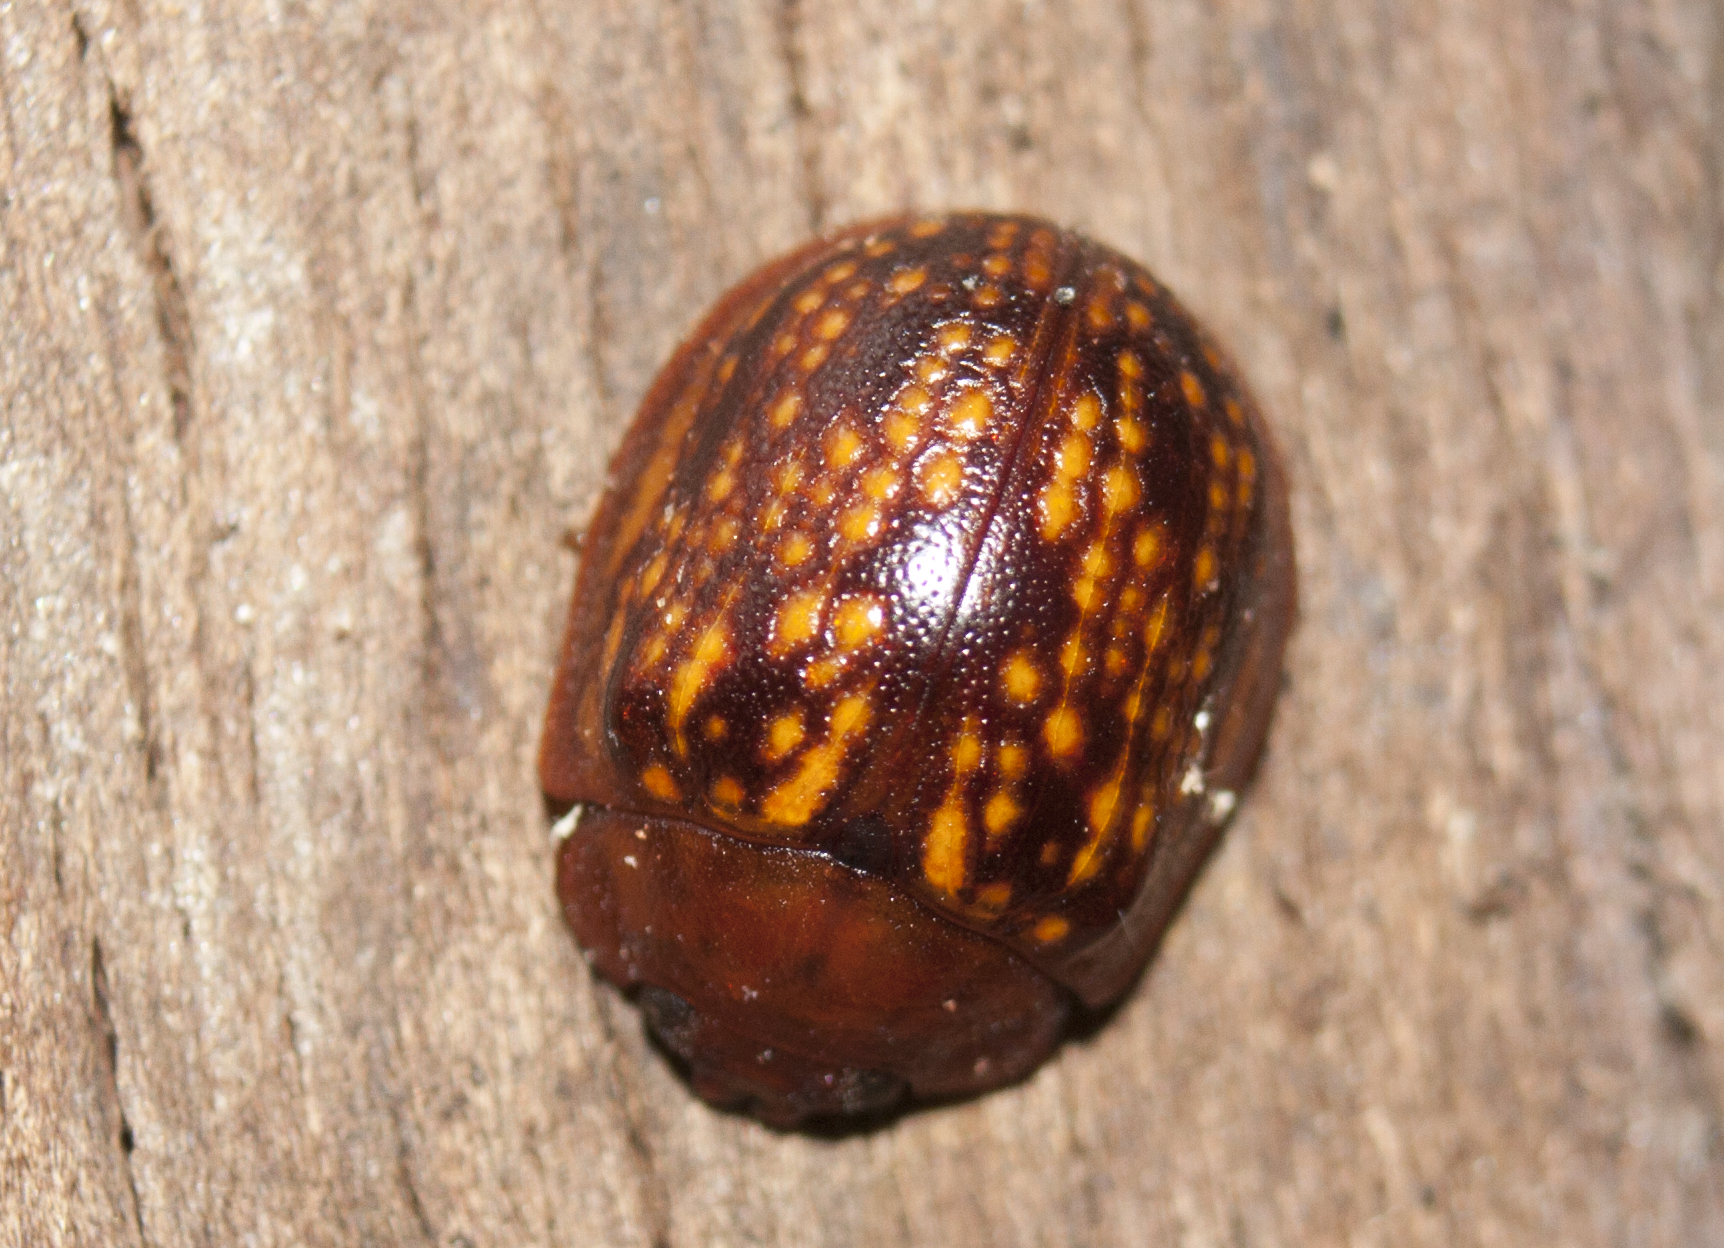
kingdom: Animalia
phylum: Arthropoda
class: Insecta
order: Coleoptera
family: Chrysomelidae
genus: Trachymela
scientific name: Trachymela
